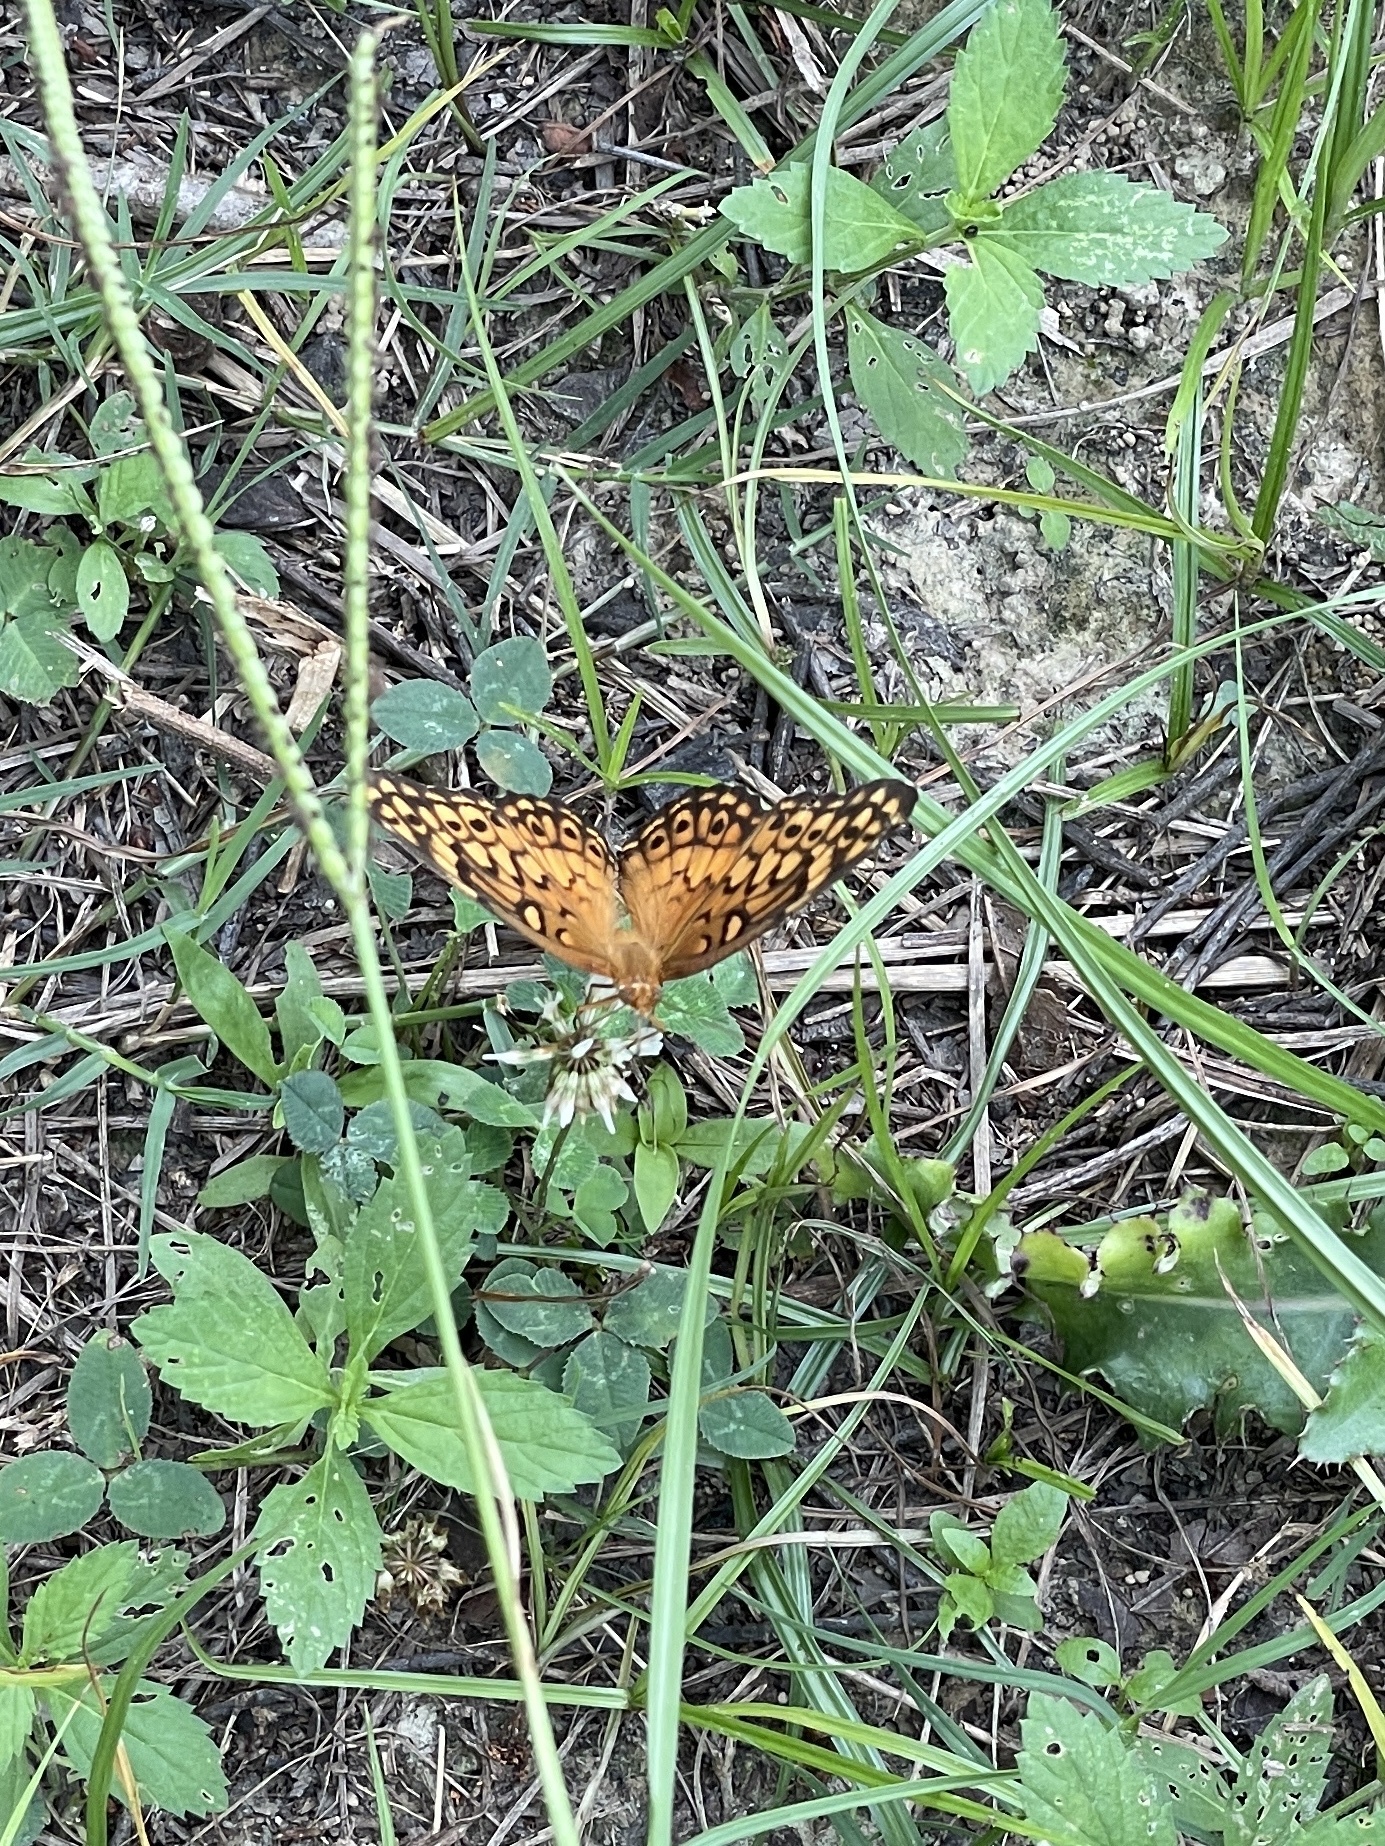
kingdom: Animalia
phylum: Arthropoda
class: Insecta
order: Lepidoptera
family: Nymphalidae
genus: Euptoieta
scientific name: Euptoieta claudia
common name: Variegated fritillary
